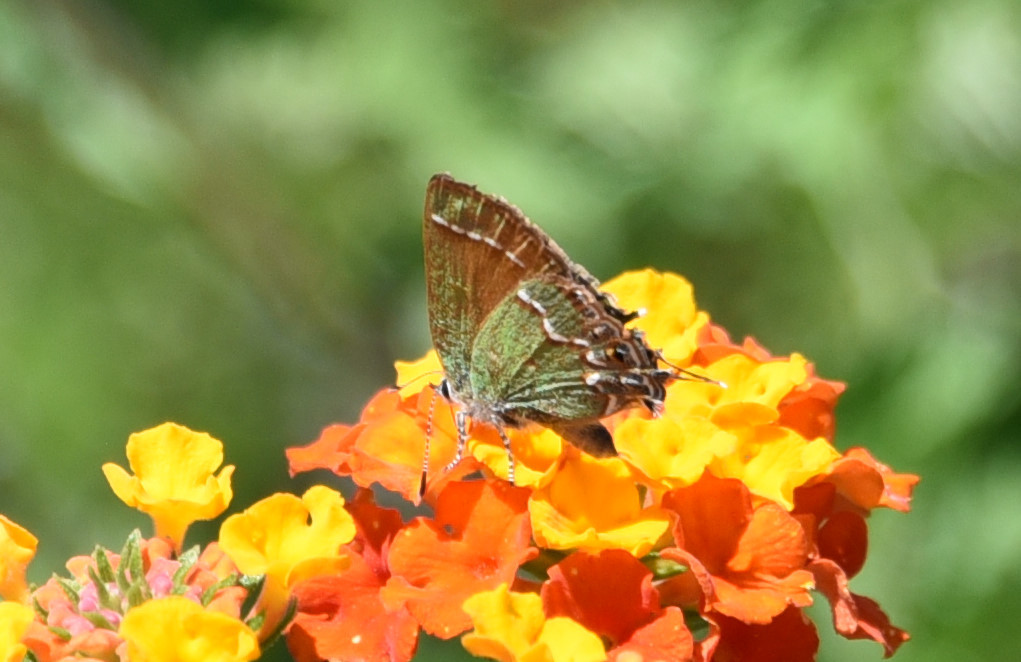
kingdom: Animalia
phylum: Arthropoda
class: Insecta
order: Lepidoptera
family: Lycaenidae
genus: Mitoura
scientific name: Mitoura gryneus
